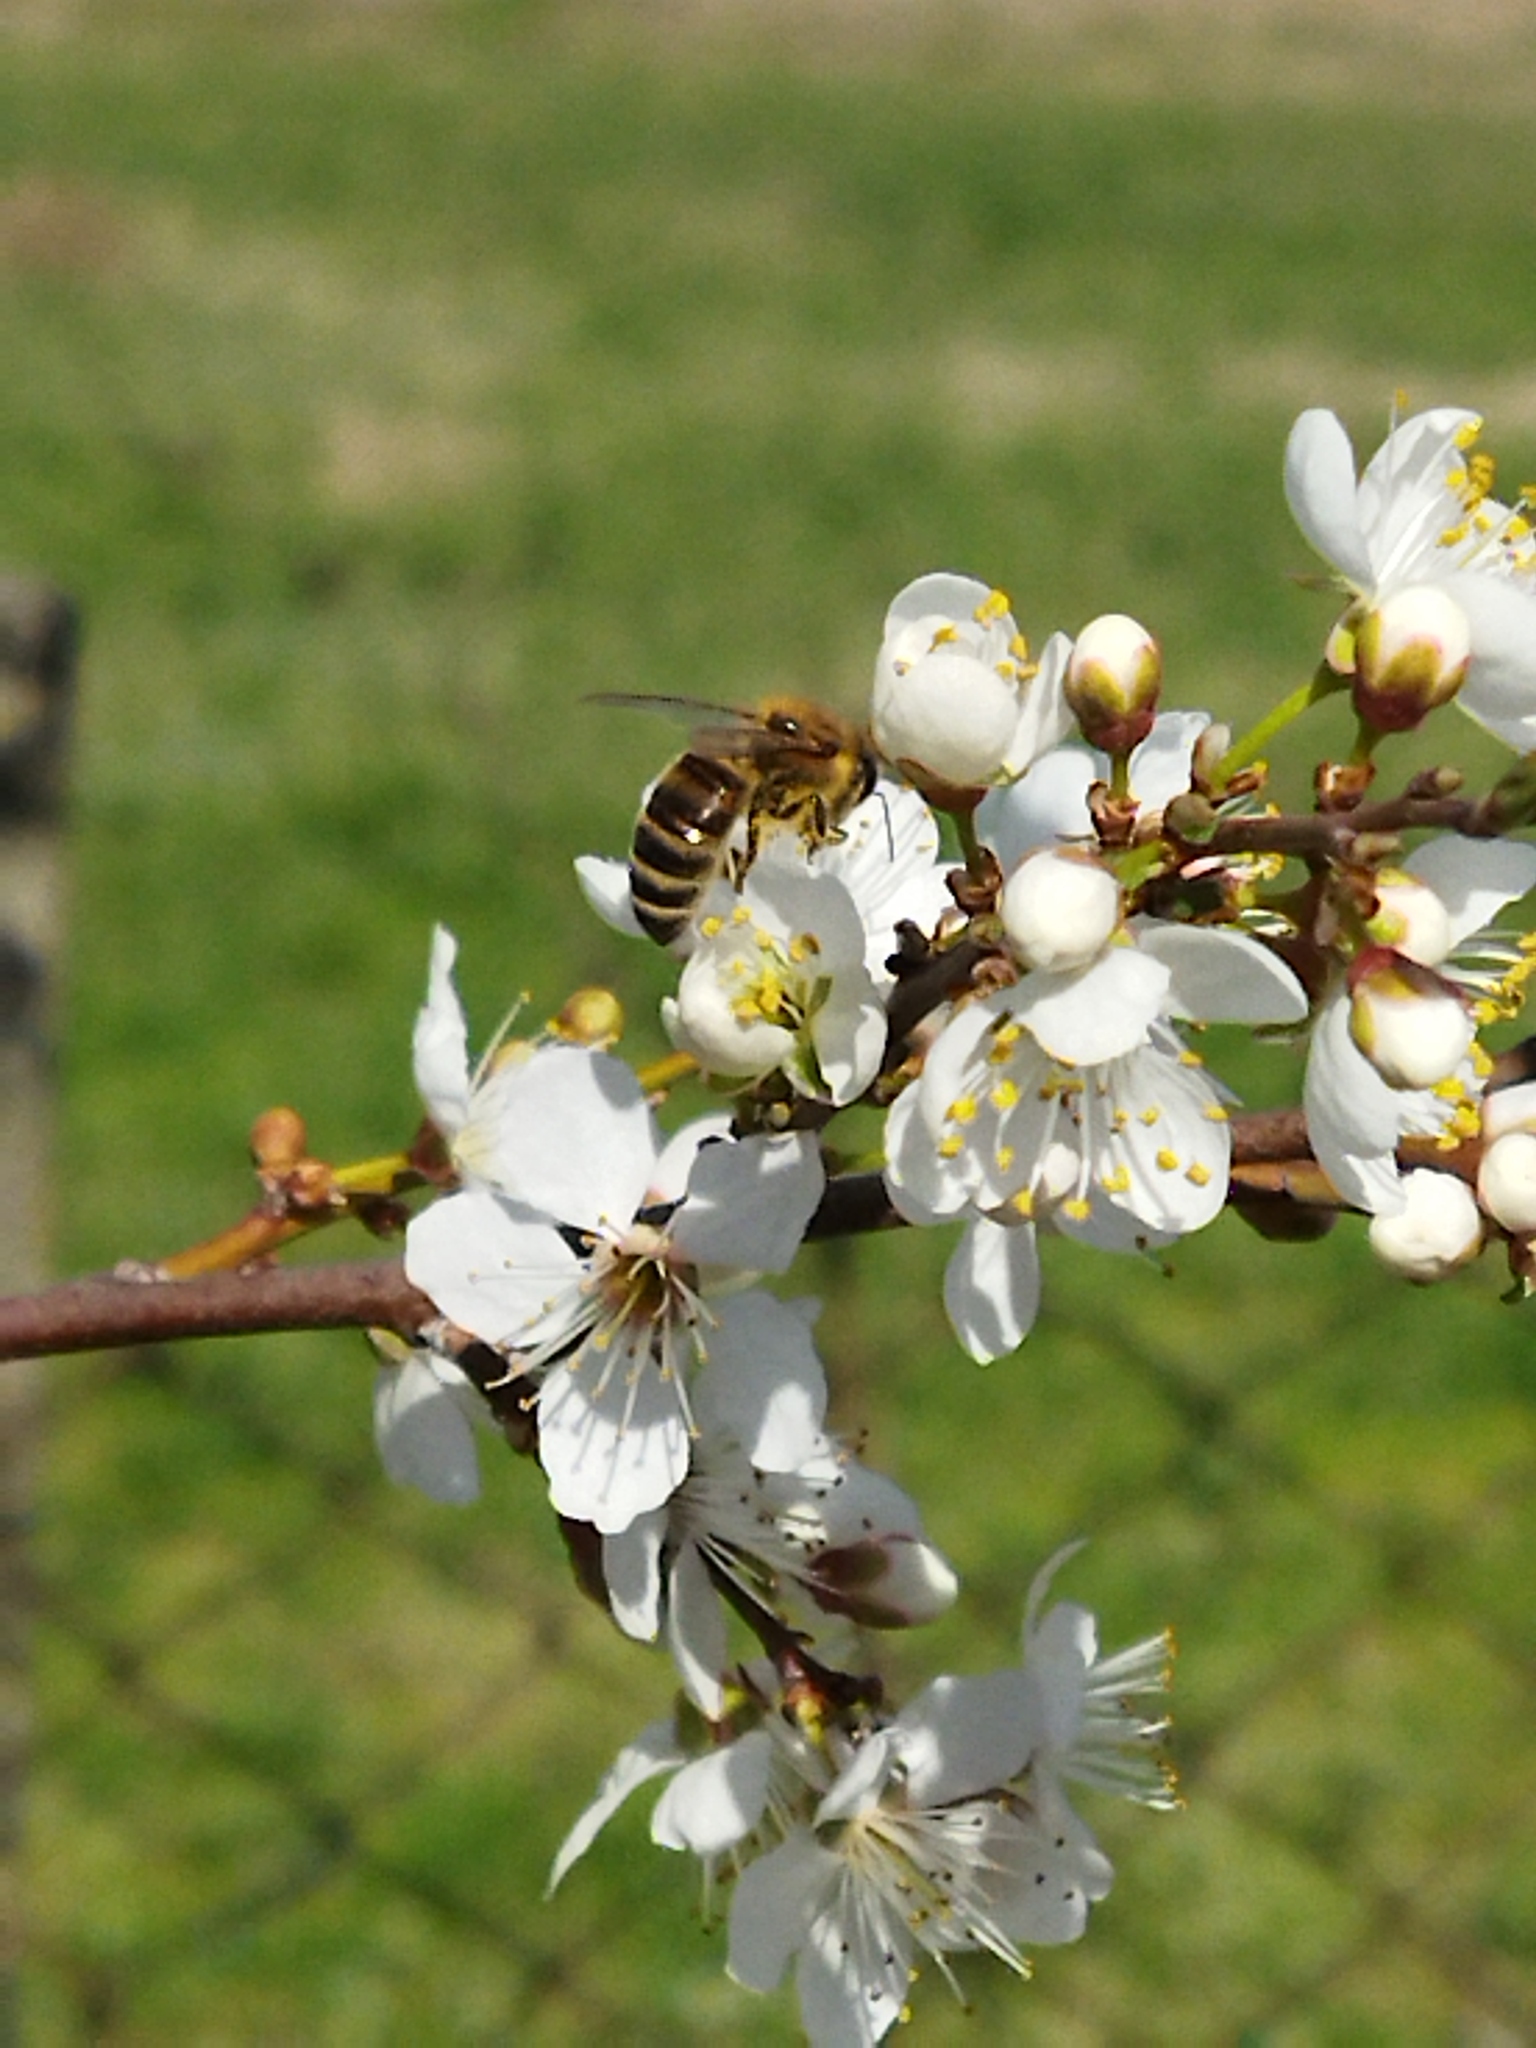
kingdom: Animalia
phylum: Arthropoda
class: Insecta
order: Hymenoptera
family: Apidae
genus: Apis
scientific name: Apis mellifera
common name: Honey bee
